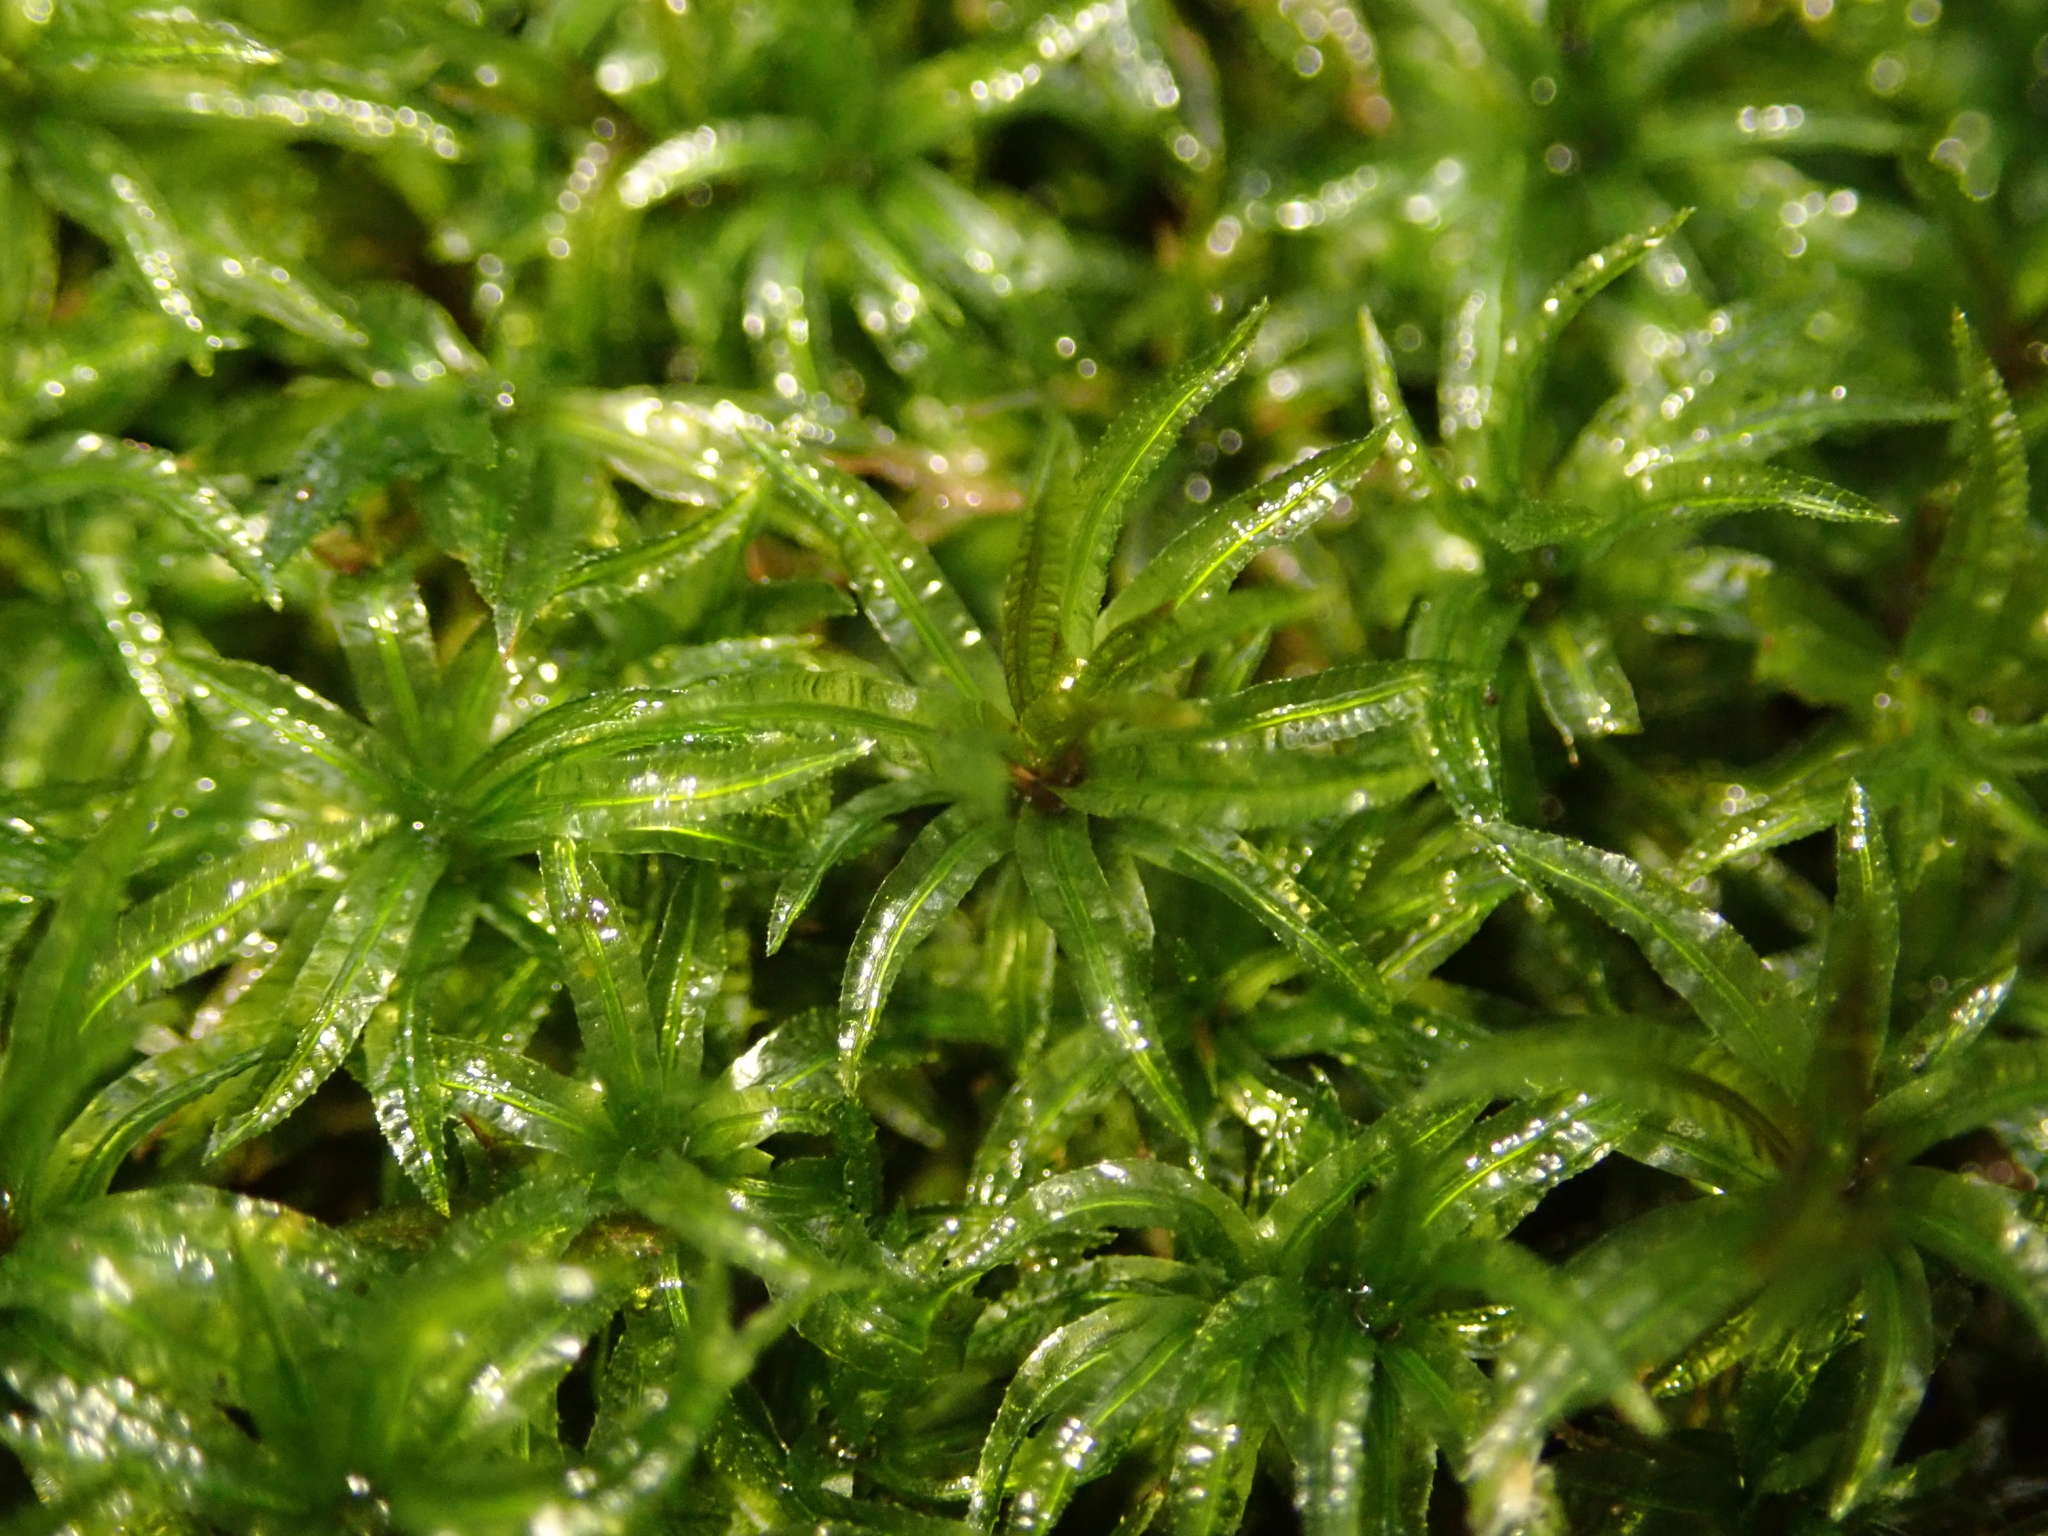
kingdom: Plantae
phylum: Bryophyta
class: Polytrichopsida
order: Polytrichales
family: Polytrichaceae
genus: Atrichum
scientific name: Atrichum undulatum
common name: Common smoothcap
